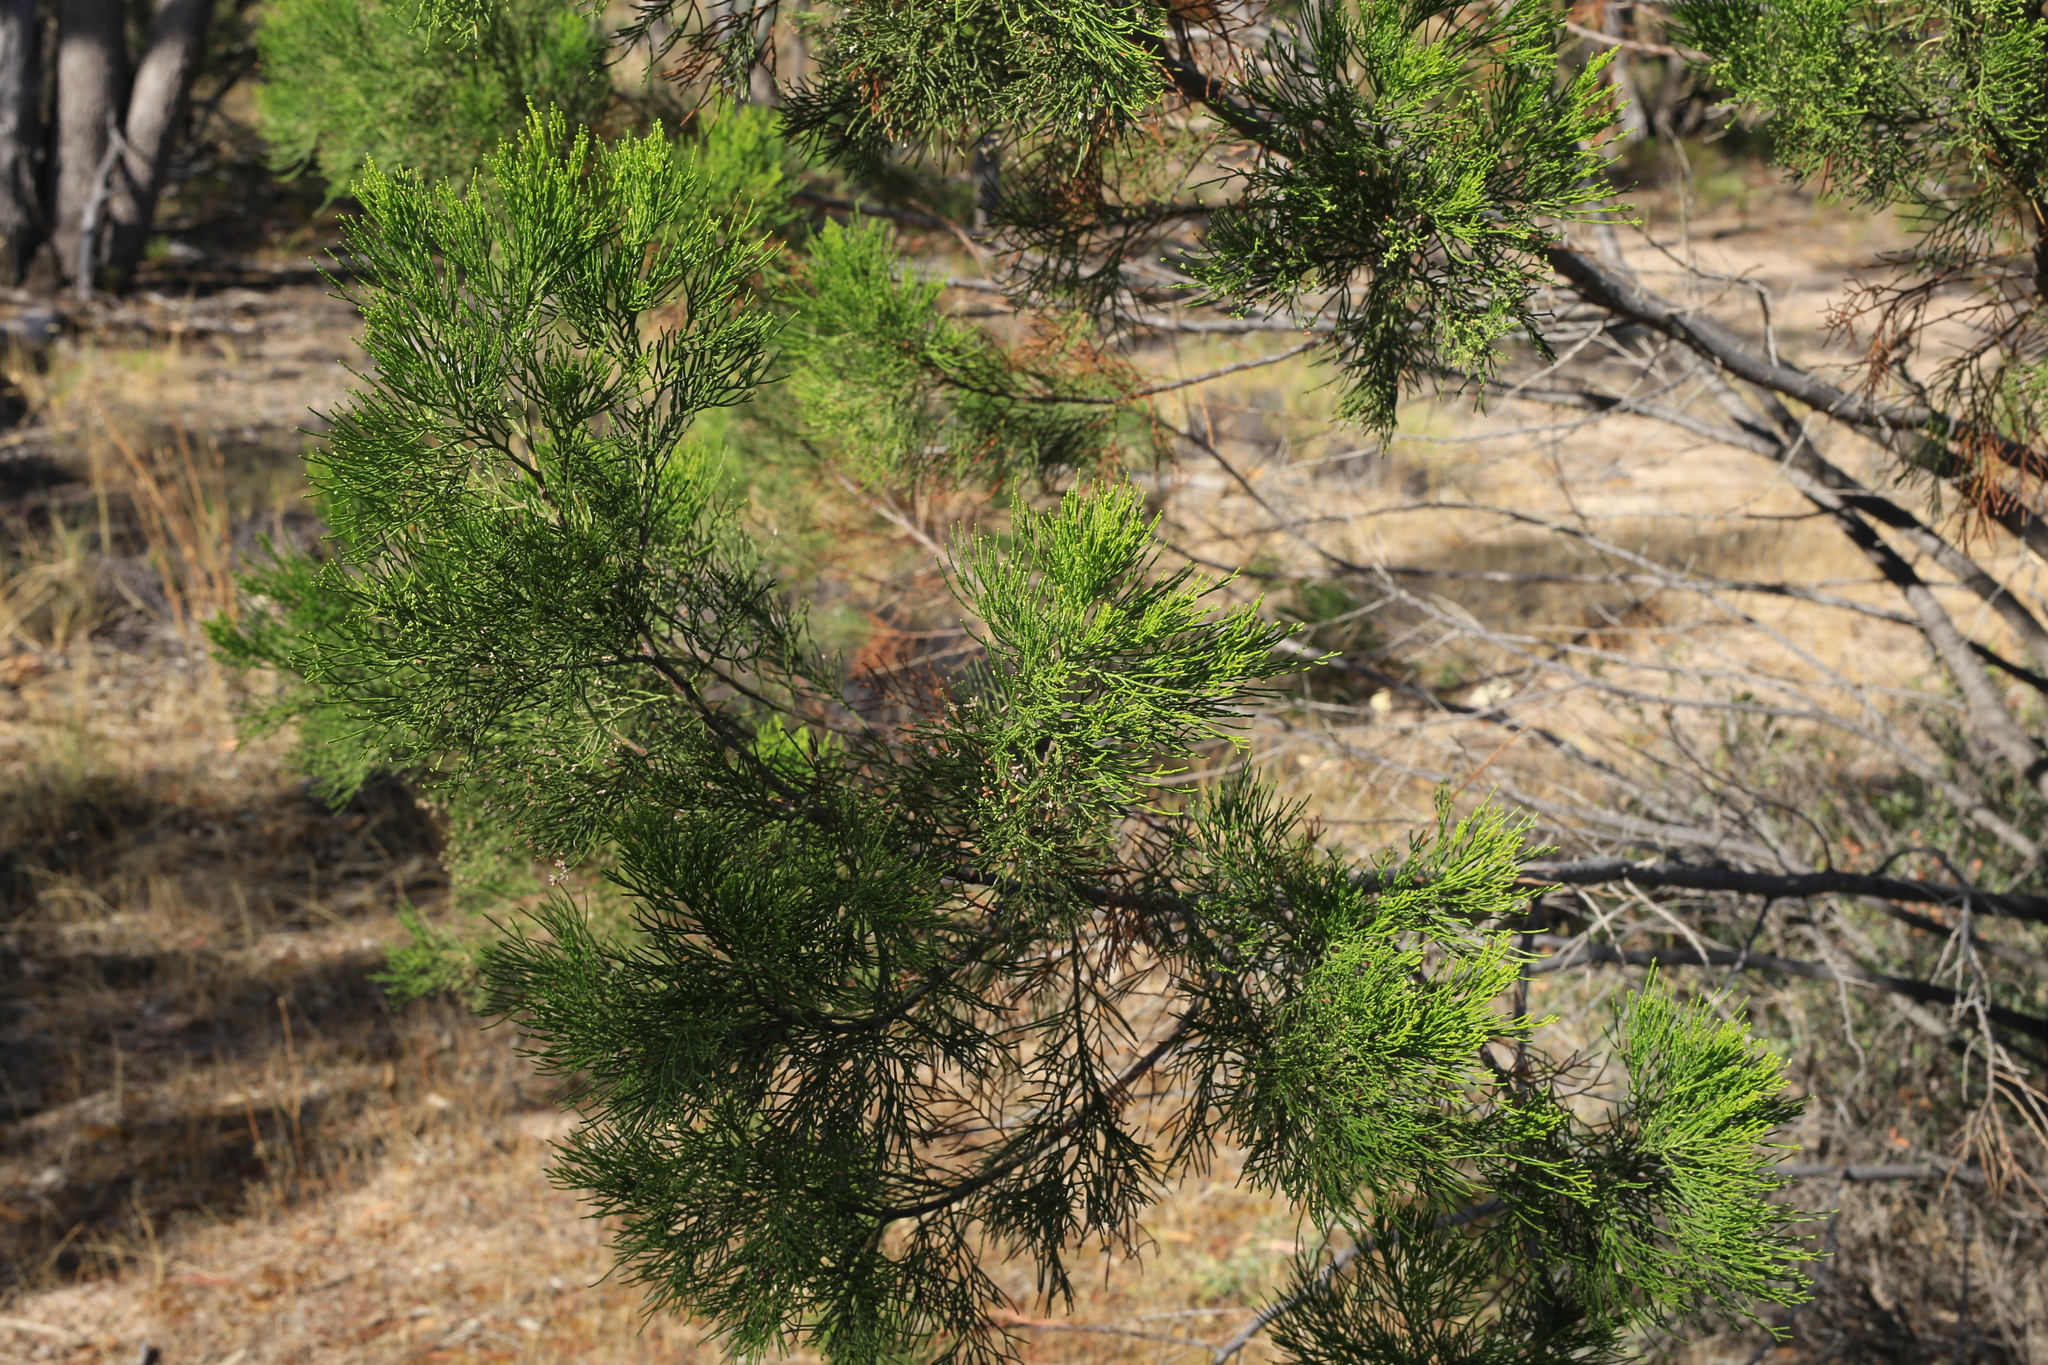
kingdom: Plantae
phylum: Tracheophyta
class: Pinopsida
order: Pinales
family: Cupressaceae
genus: Callitris
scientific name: Callitris preissii
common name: Mallee pine
